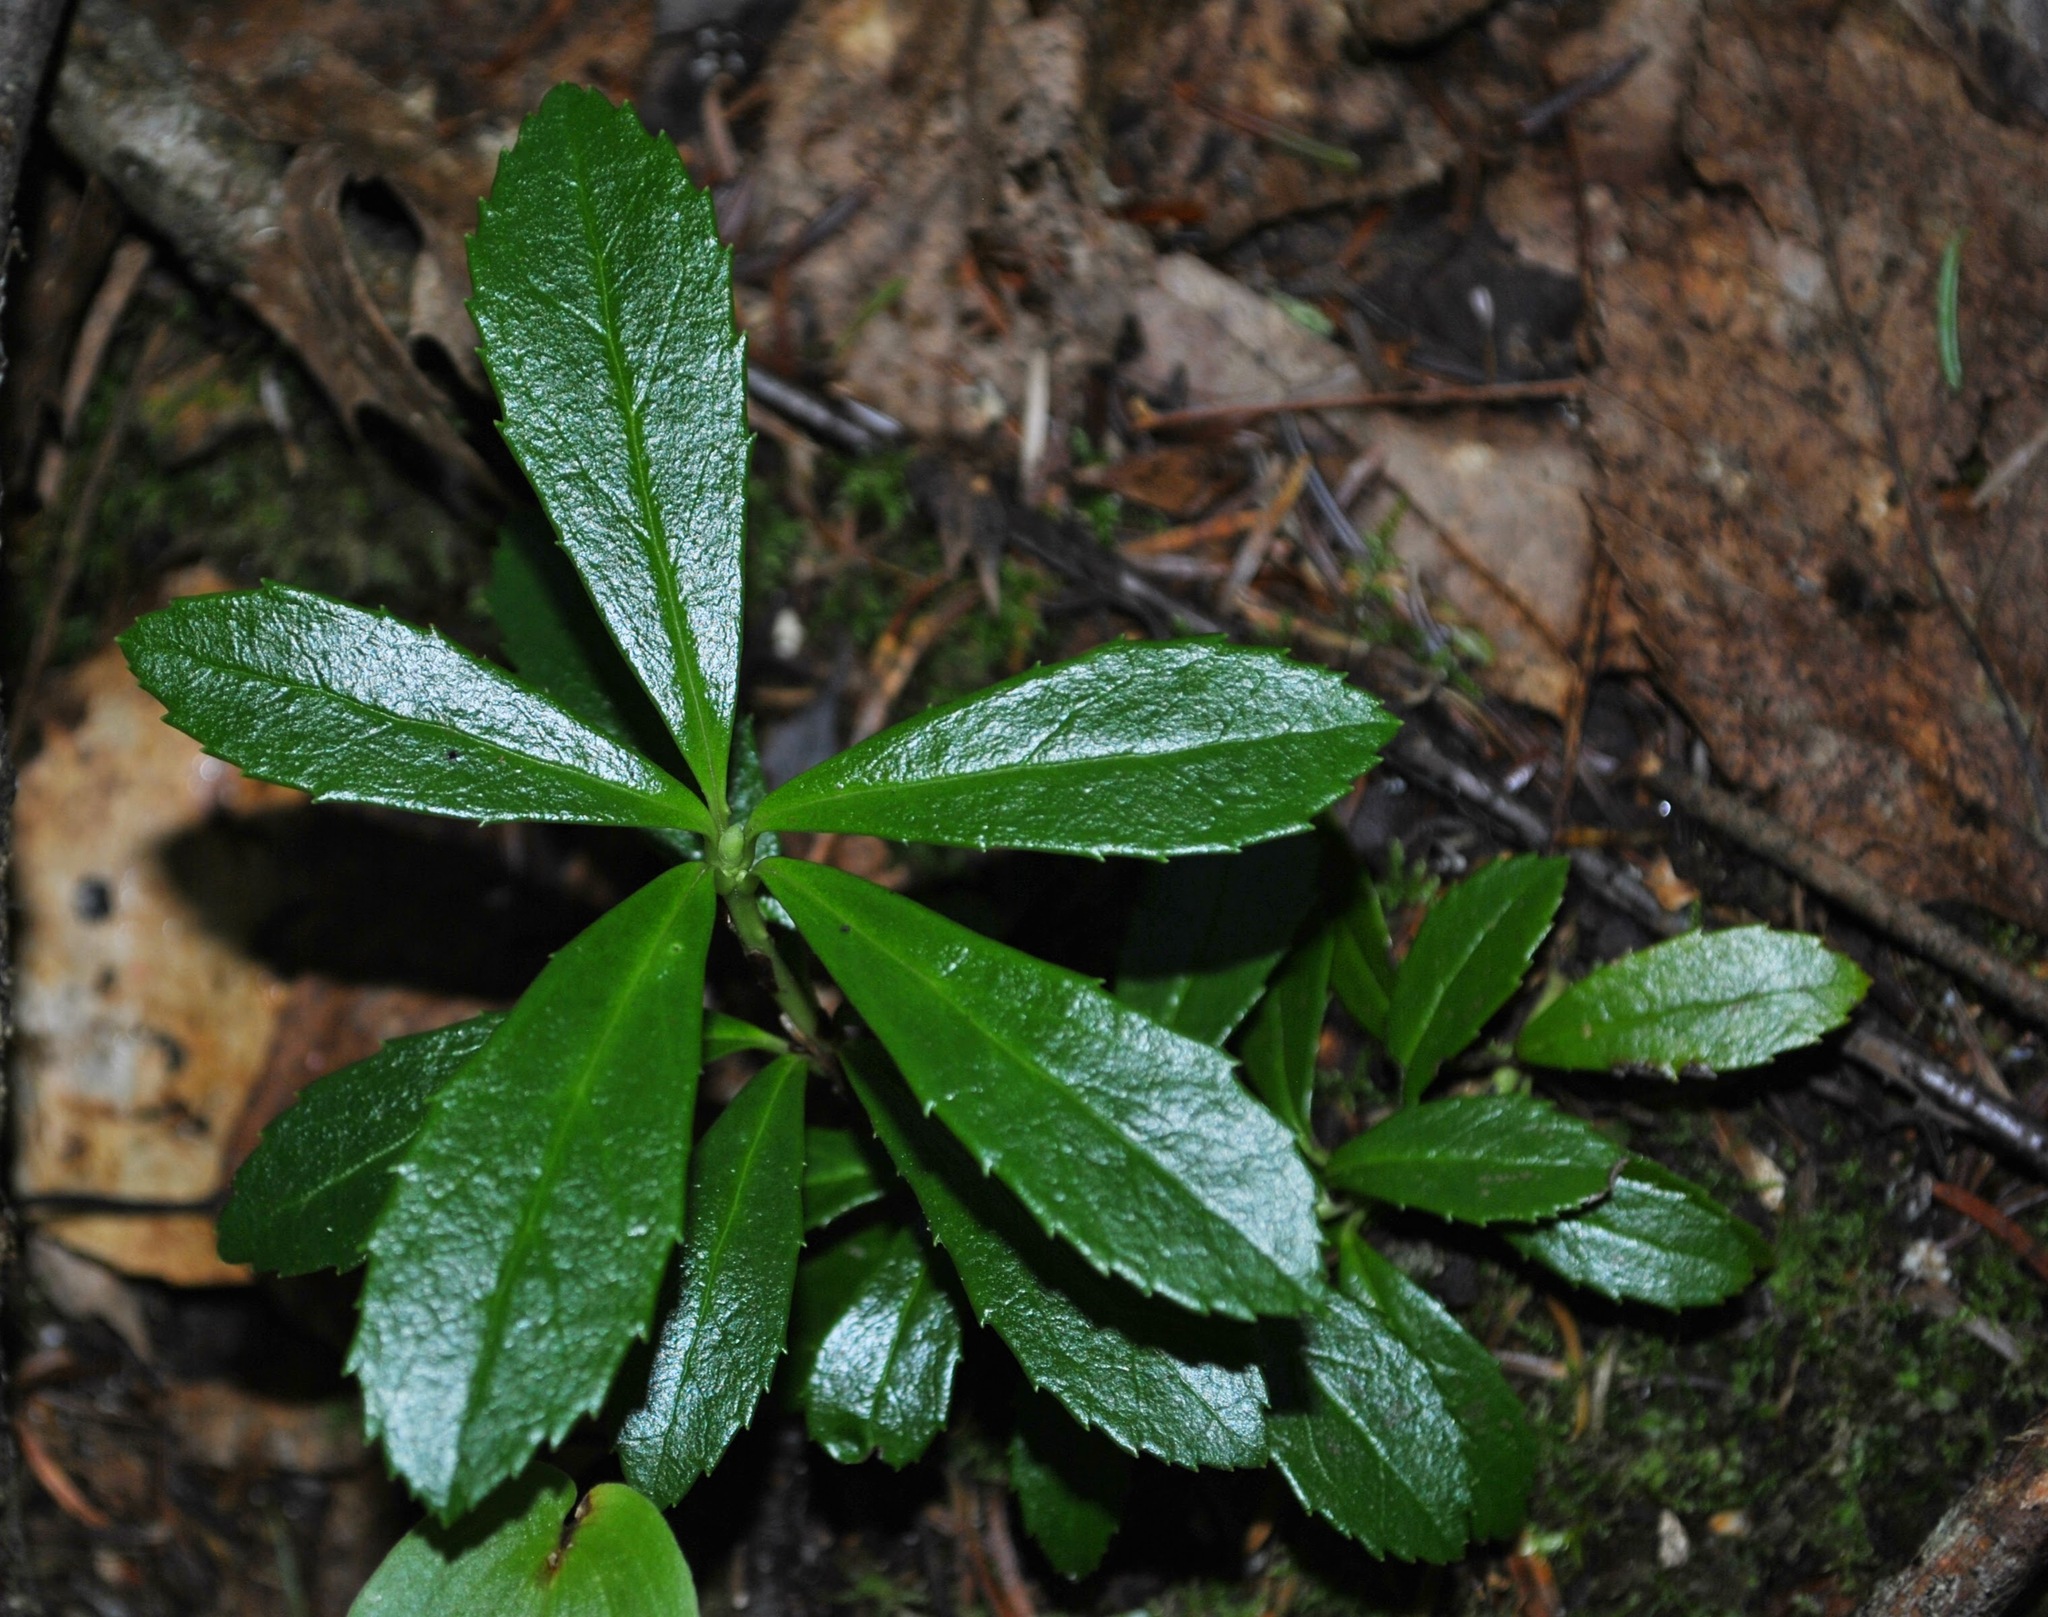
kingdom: Plantae
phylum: Tracheophyta
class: Magnoliopsida
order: Ericales
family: Ericaceae
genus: Chimaphila
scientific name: Chimaphila umbellata
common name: Pipsissewa
